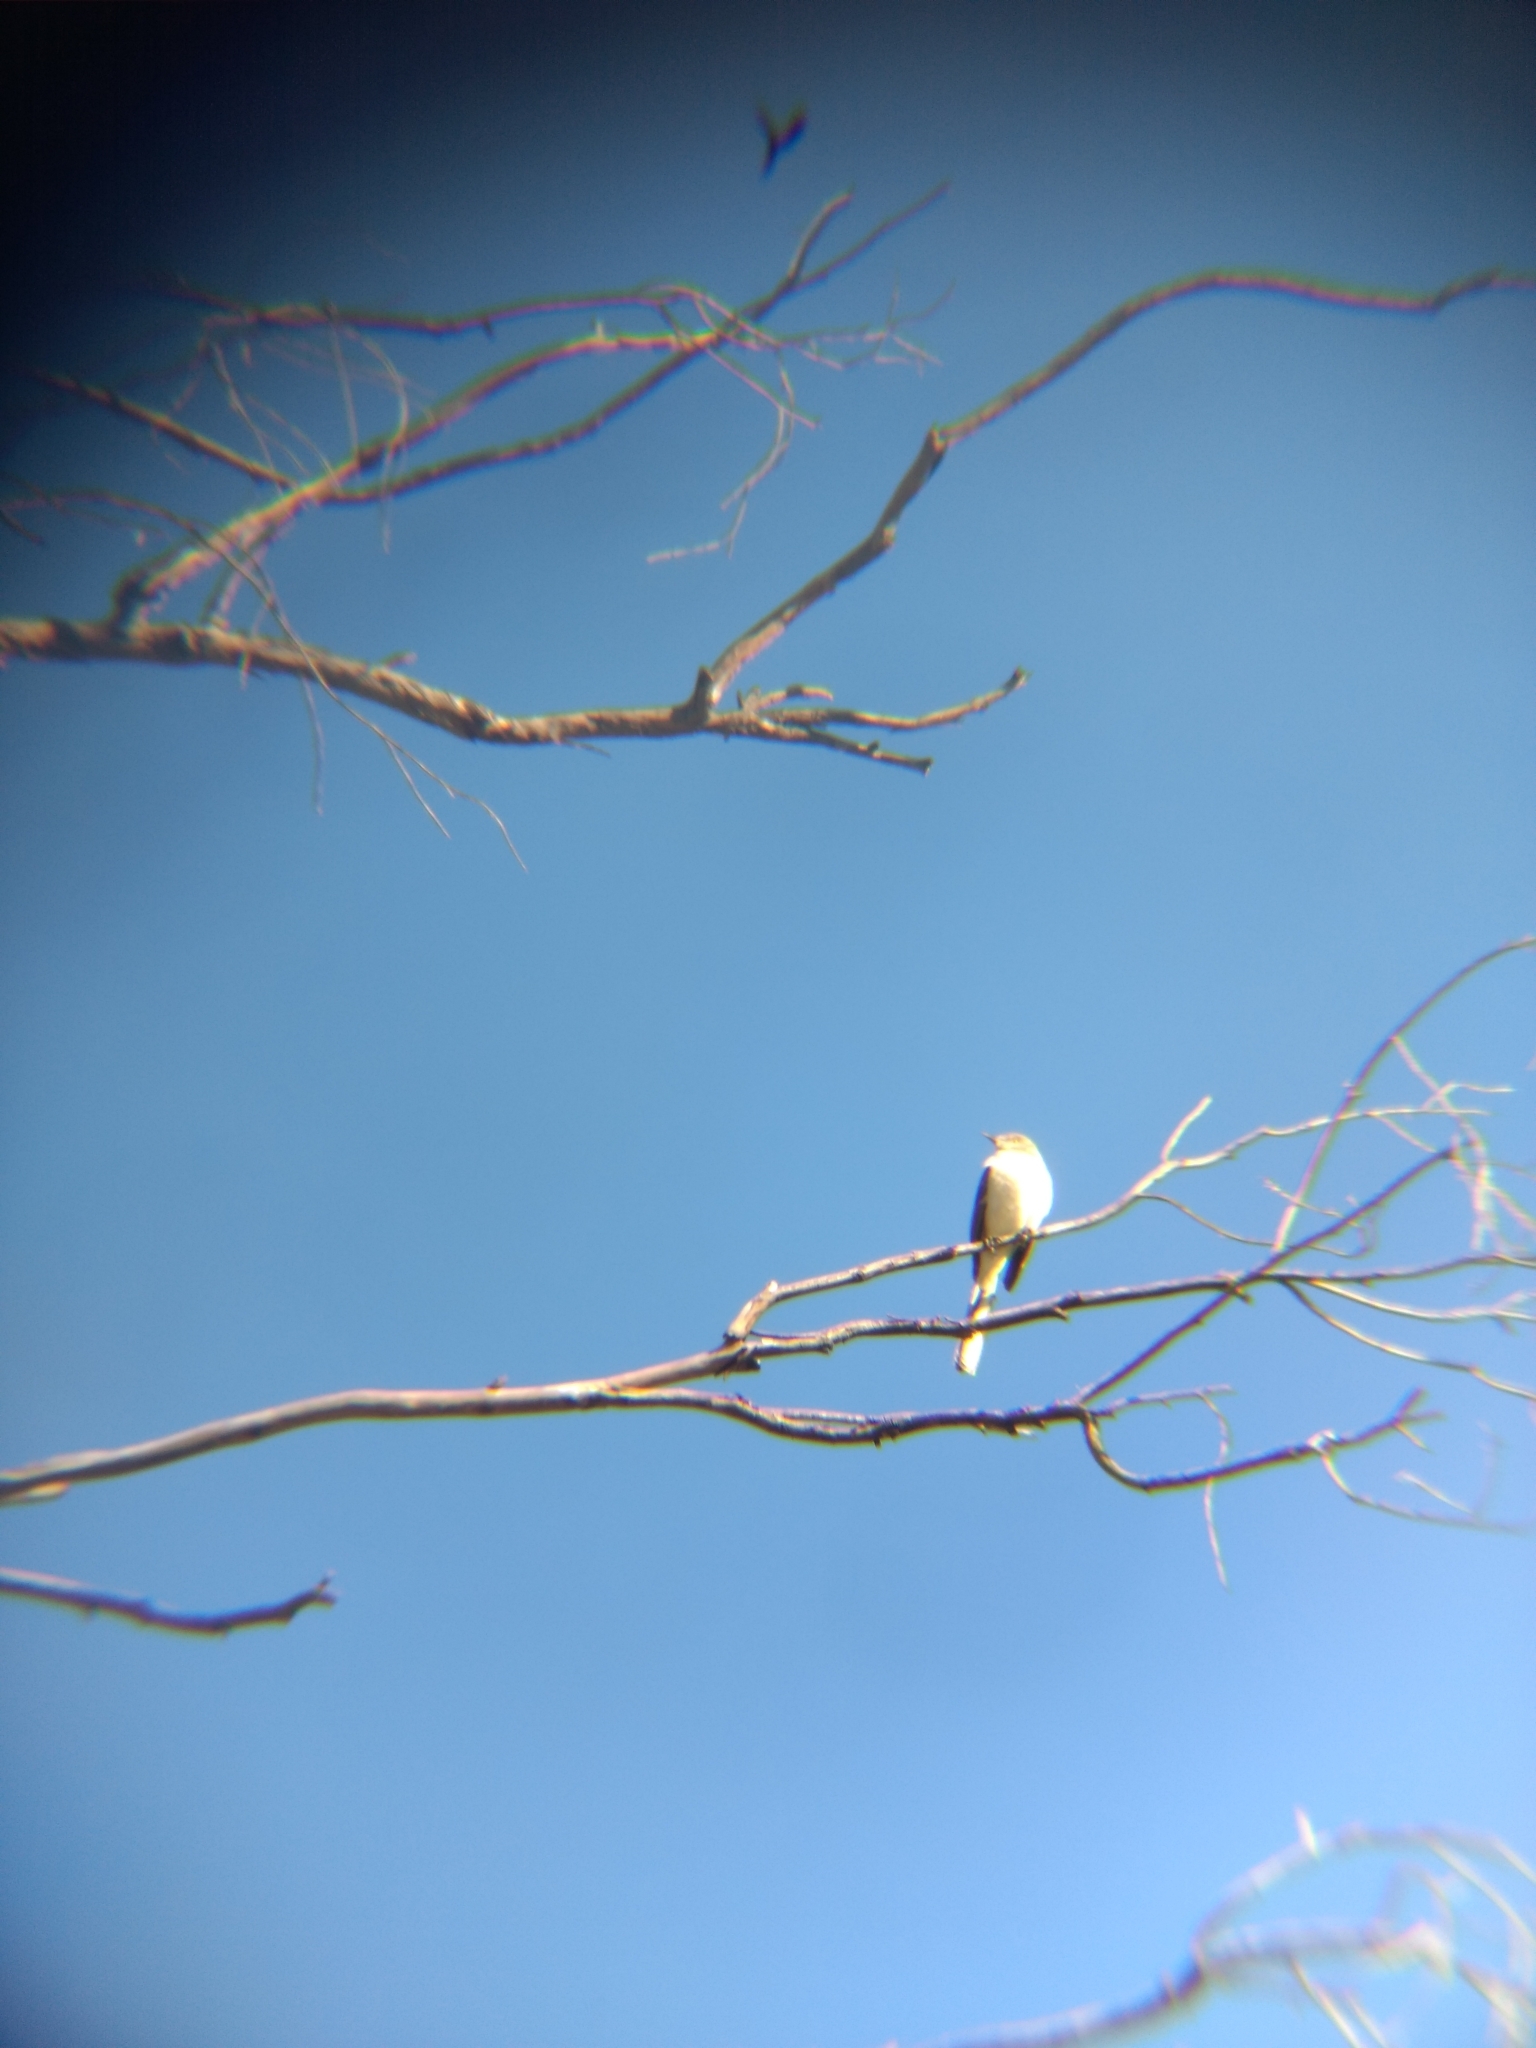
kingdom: Animalia
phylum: Chordata
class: Aves
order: Passeriformes
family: Mimidae
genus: Mimus
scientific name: Mimus polyglottos
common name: Northern mockingbird
